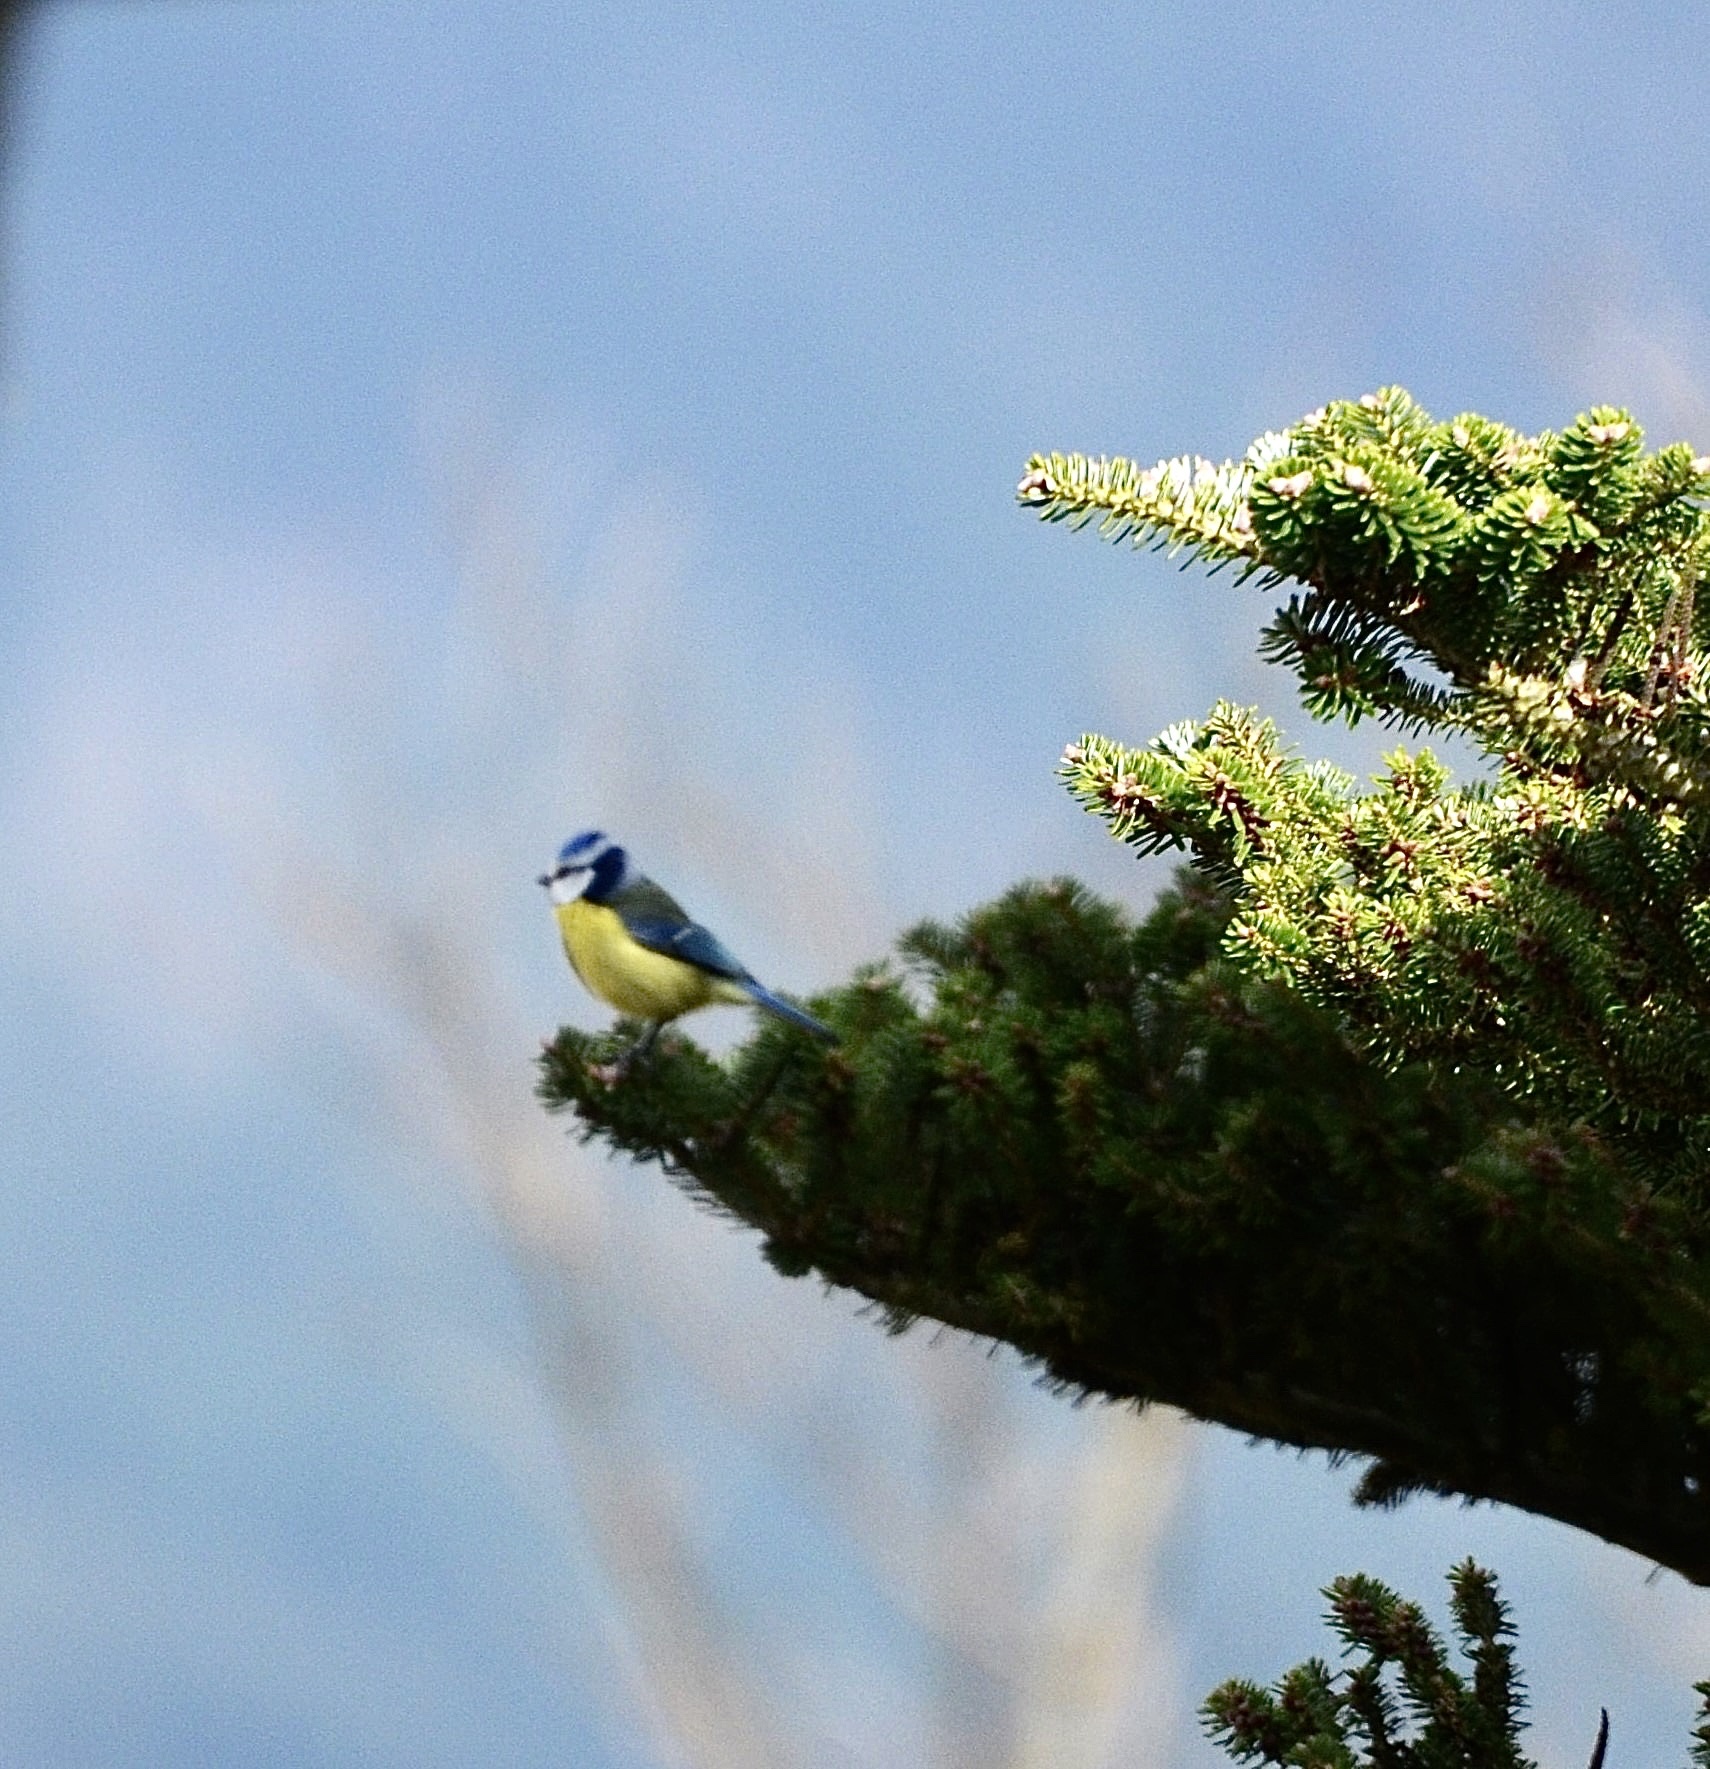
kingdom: Animalia
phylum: Chordata
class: Aves
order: Passeriformes
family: Paridae
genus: Cyanistes
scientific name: Cyanistes caeruleus
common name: Eurasian blue tit
